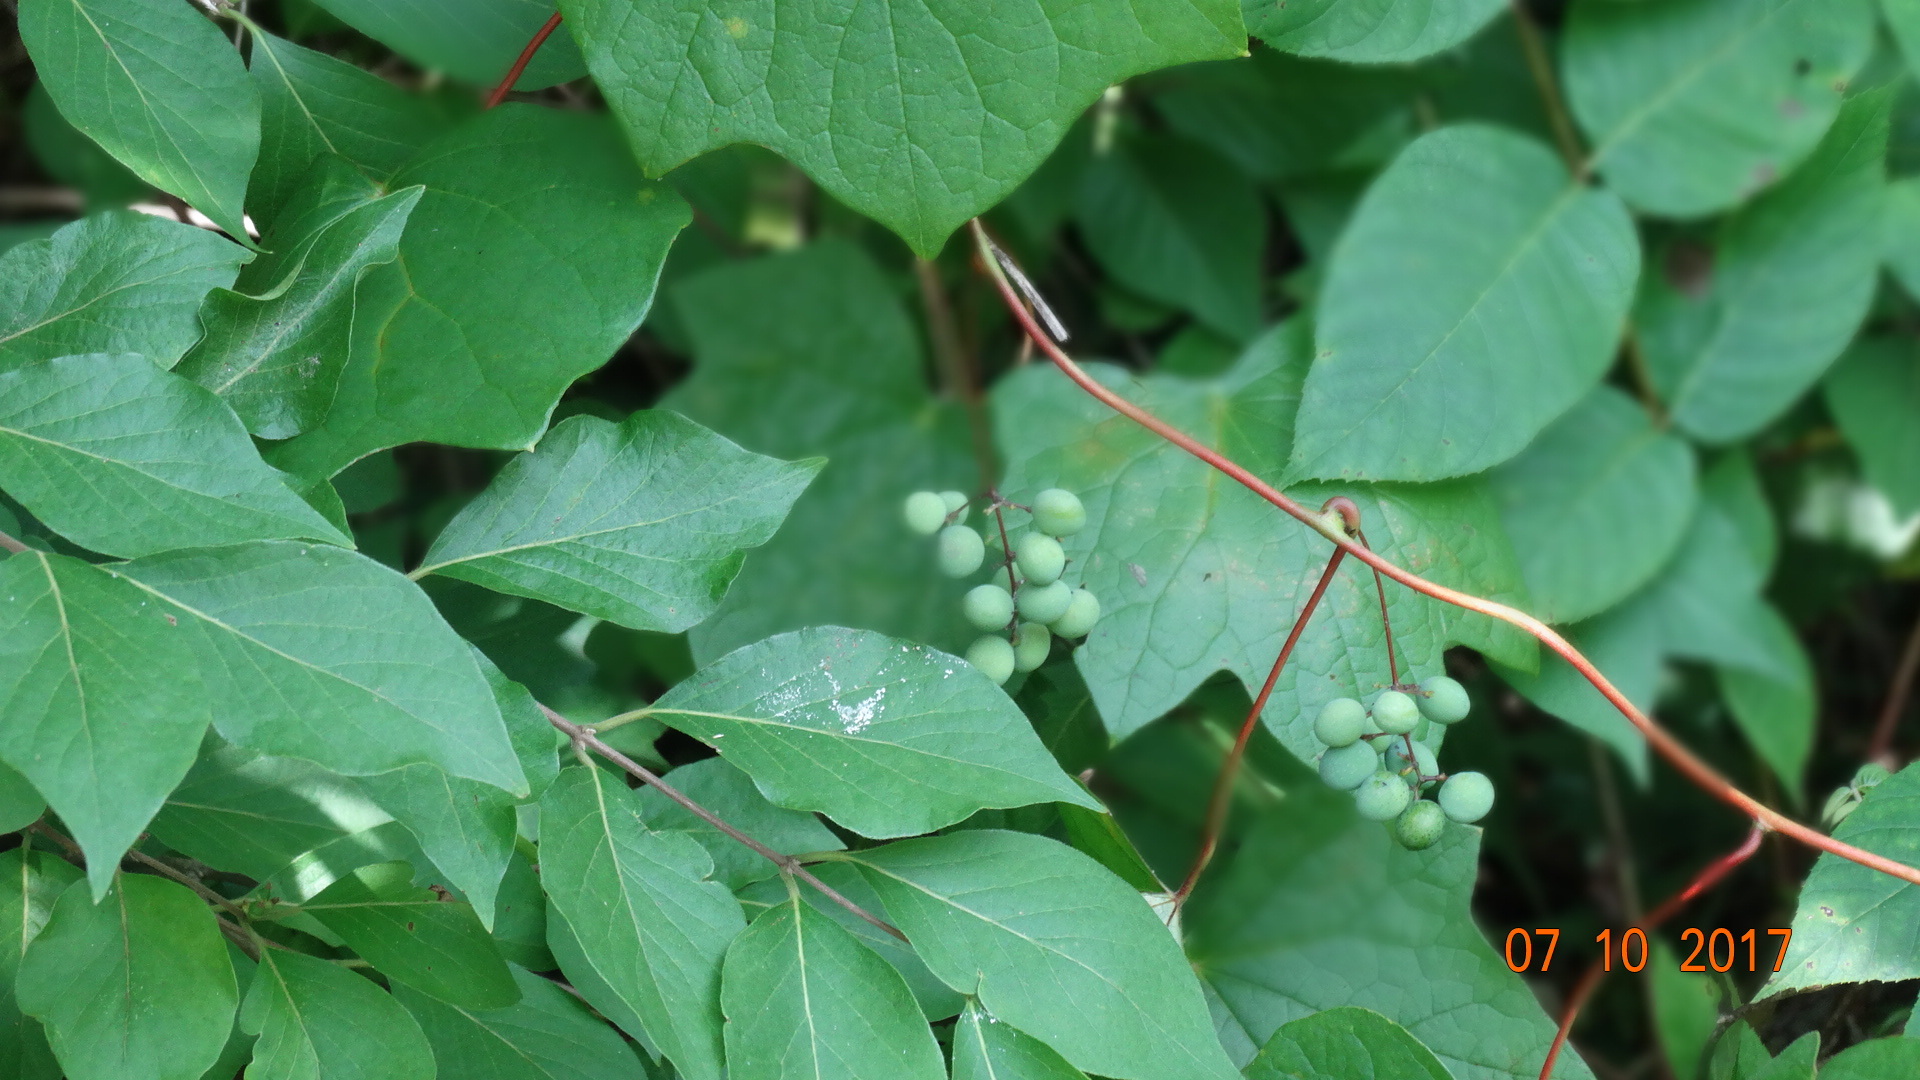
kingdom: Plantae
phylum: Tracheophyta
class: Magnoliopsida
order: Ranunculales
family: Menispermaceae
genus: Menispermum
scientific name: Menispermum canadense
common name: Moonseed
